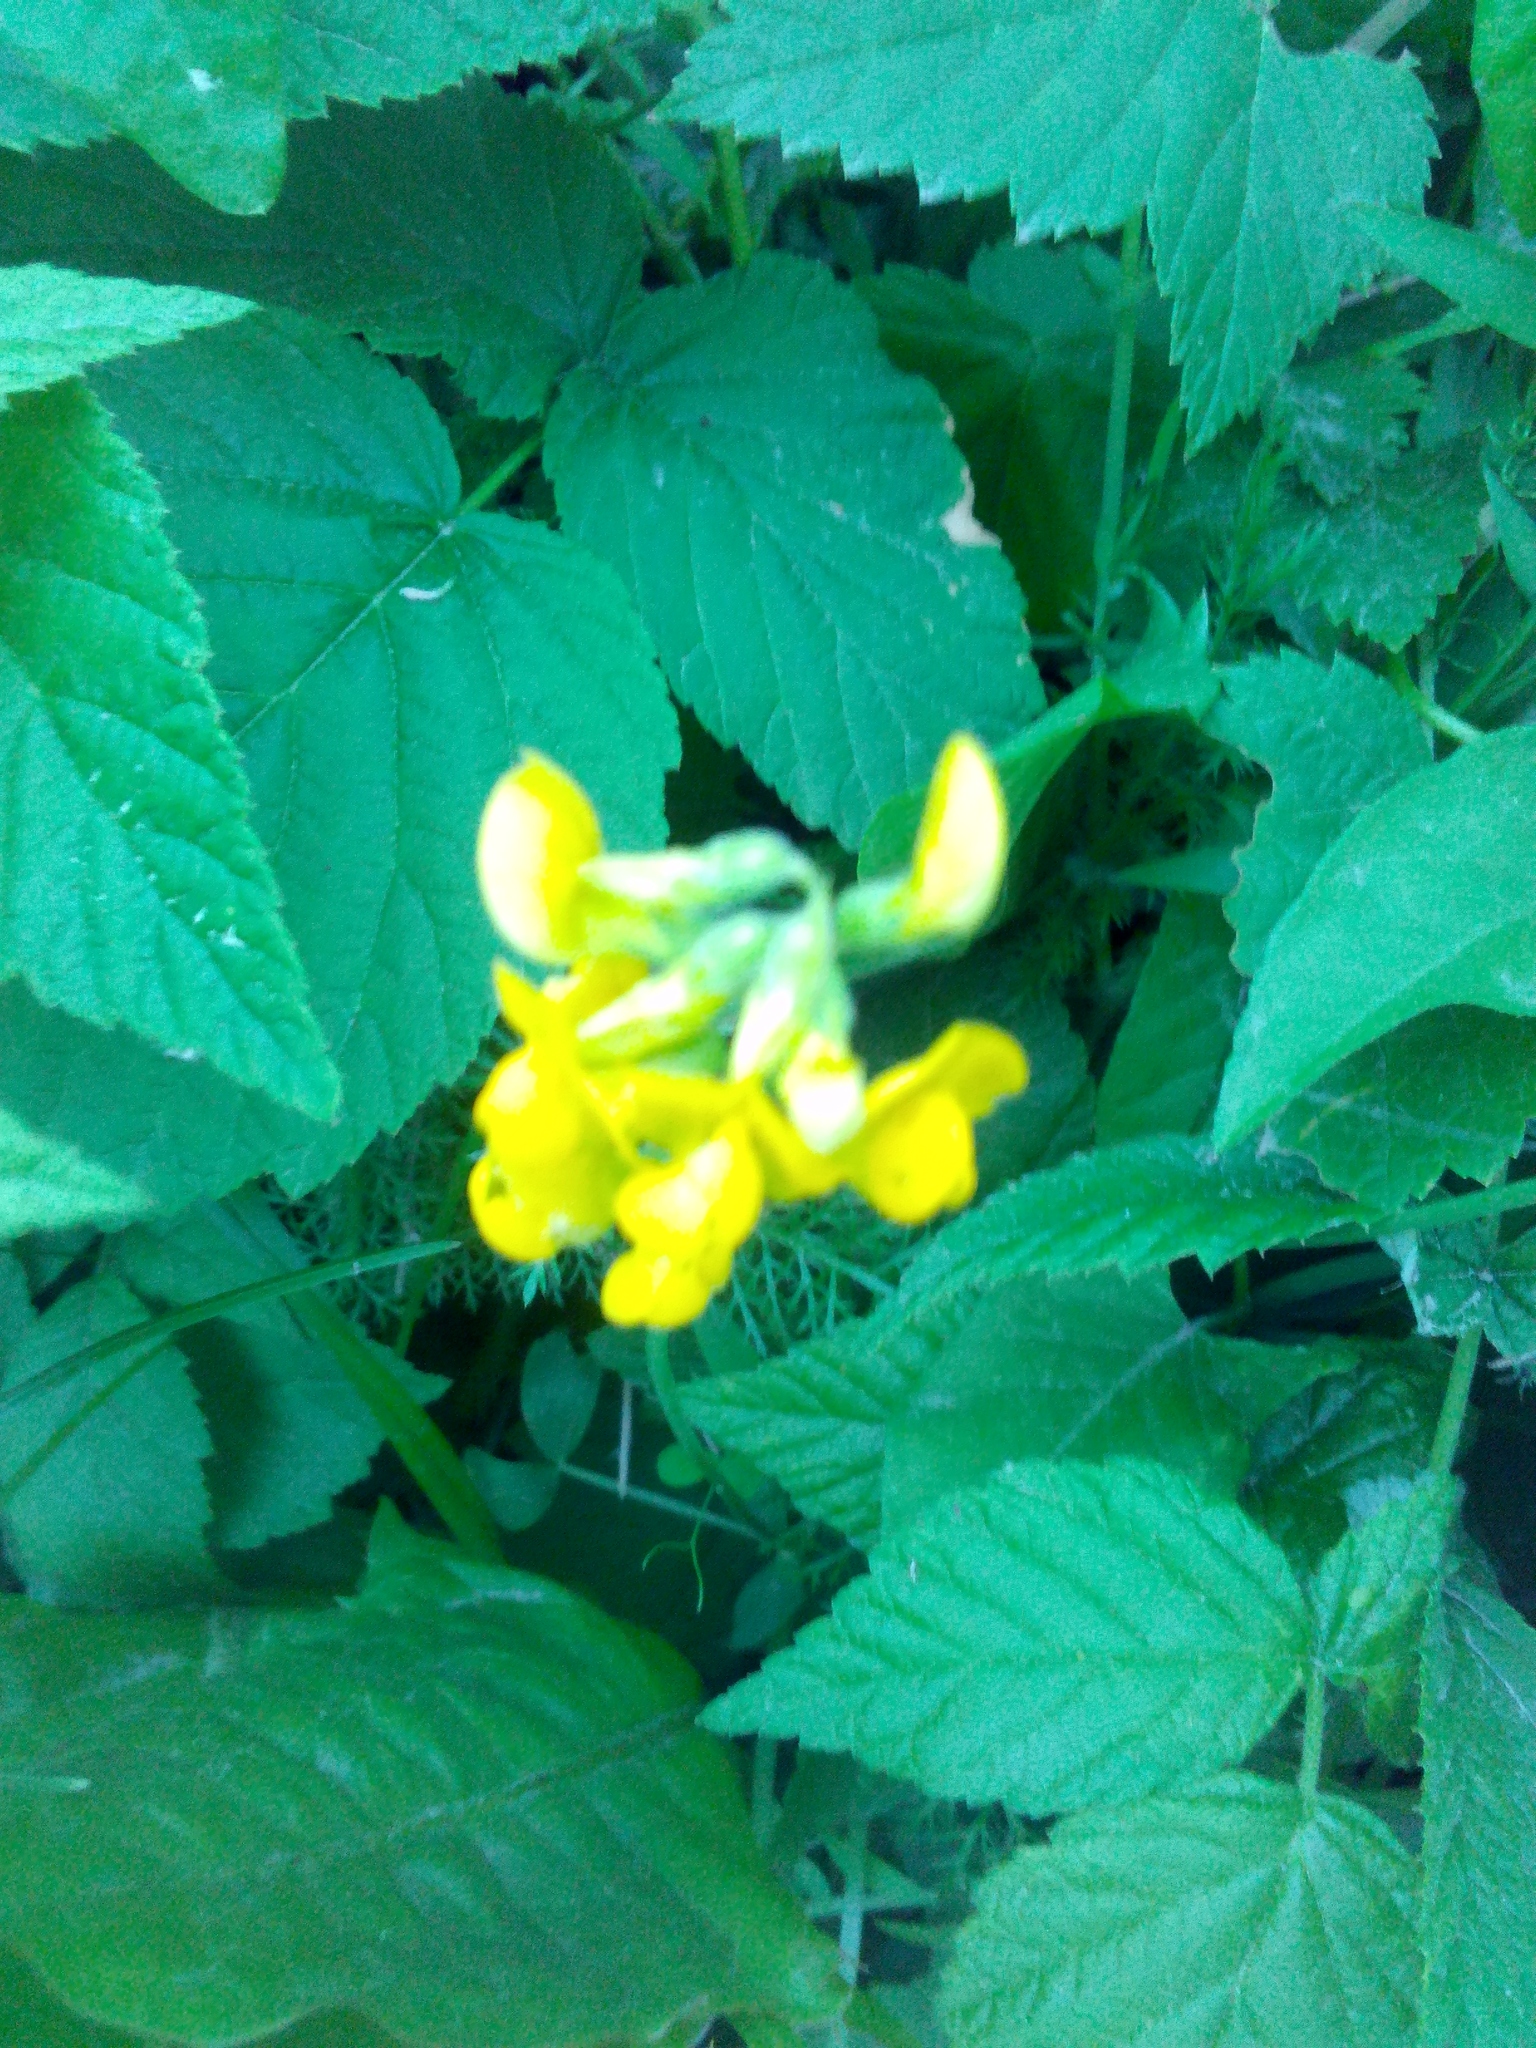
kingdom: Plantae
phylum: Tracheophyta
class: Magnoliopsida
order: Fabales
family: Fabaceae
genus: Lathyrus
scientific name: Lathyrus pratensis
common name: Meadow vetchling
